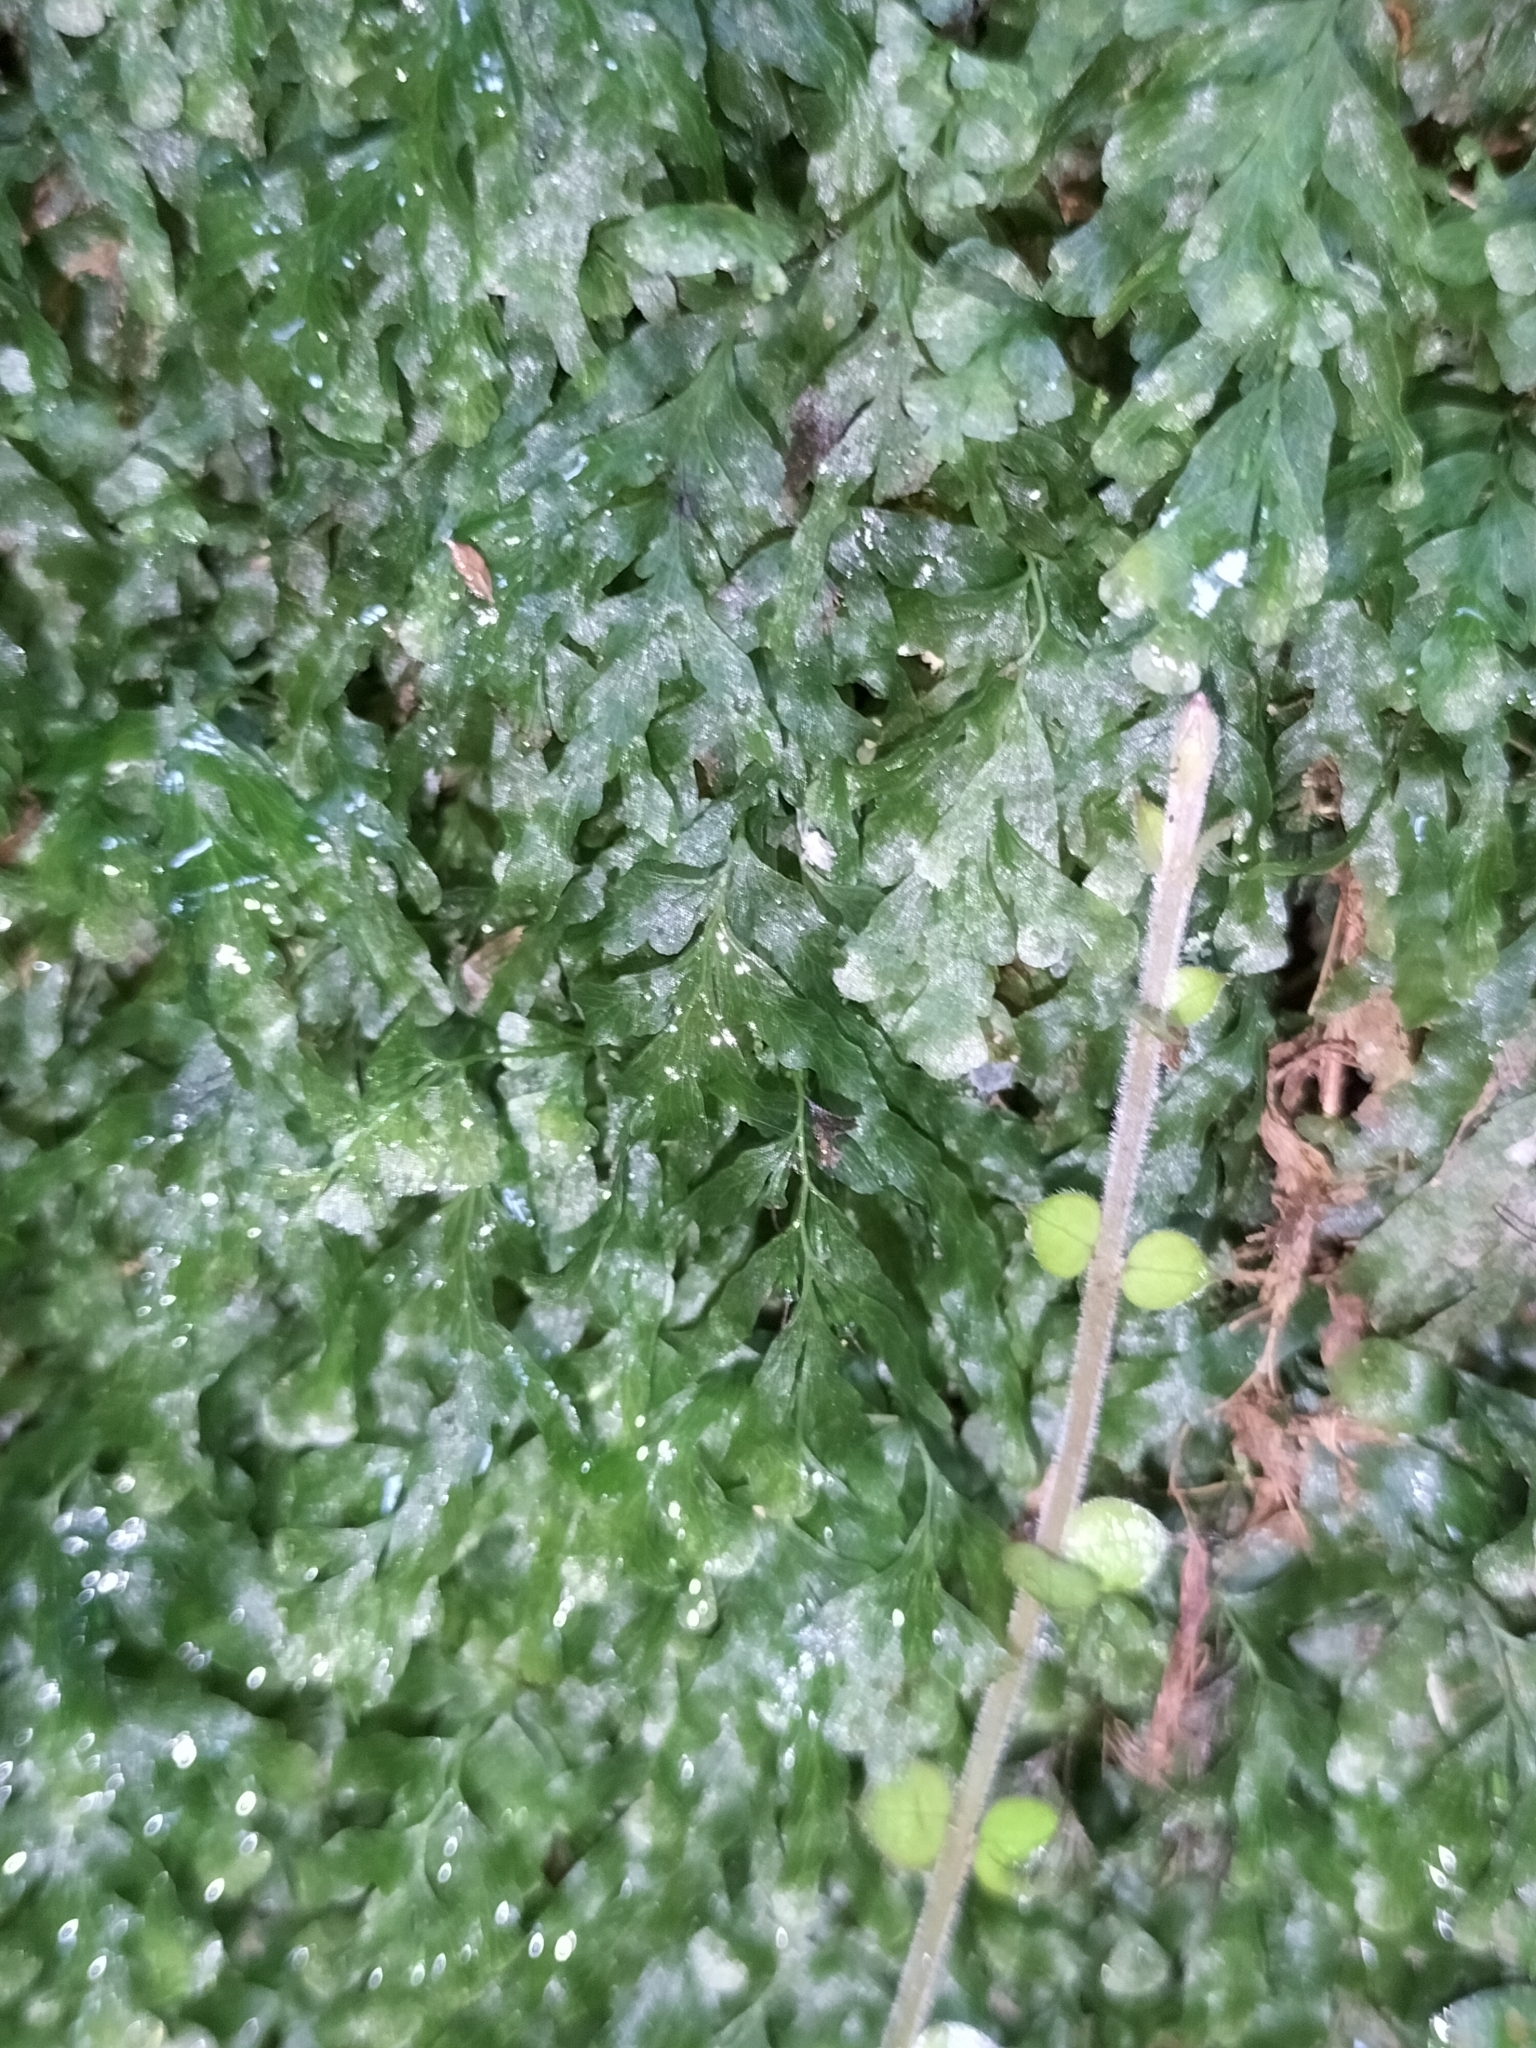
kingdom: Plantae
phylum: Tracheophyta
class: Polypodiopsida
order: Hymenophyllales
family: Hymenophyllaceae
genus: Polyphlebium
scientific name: Polyphlebium venosum
